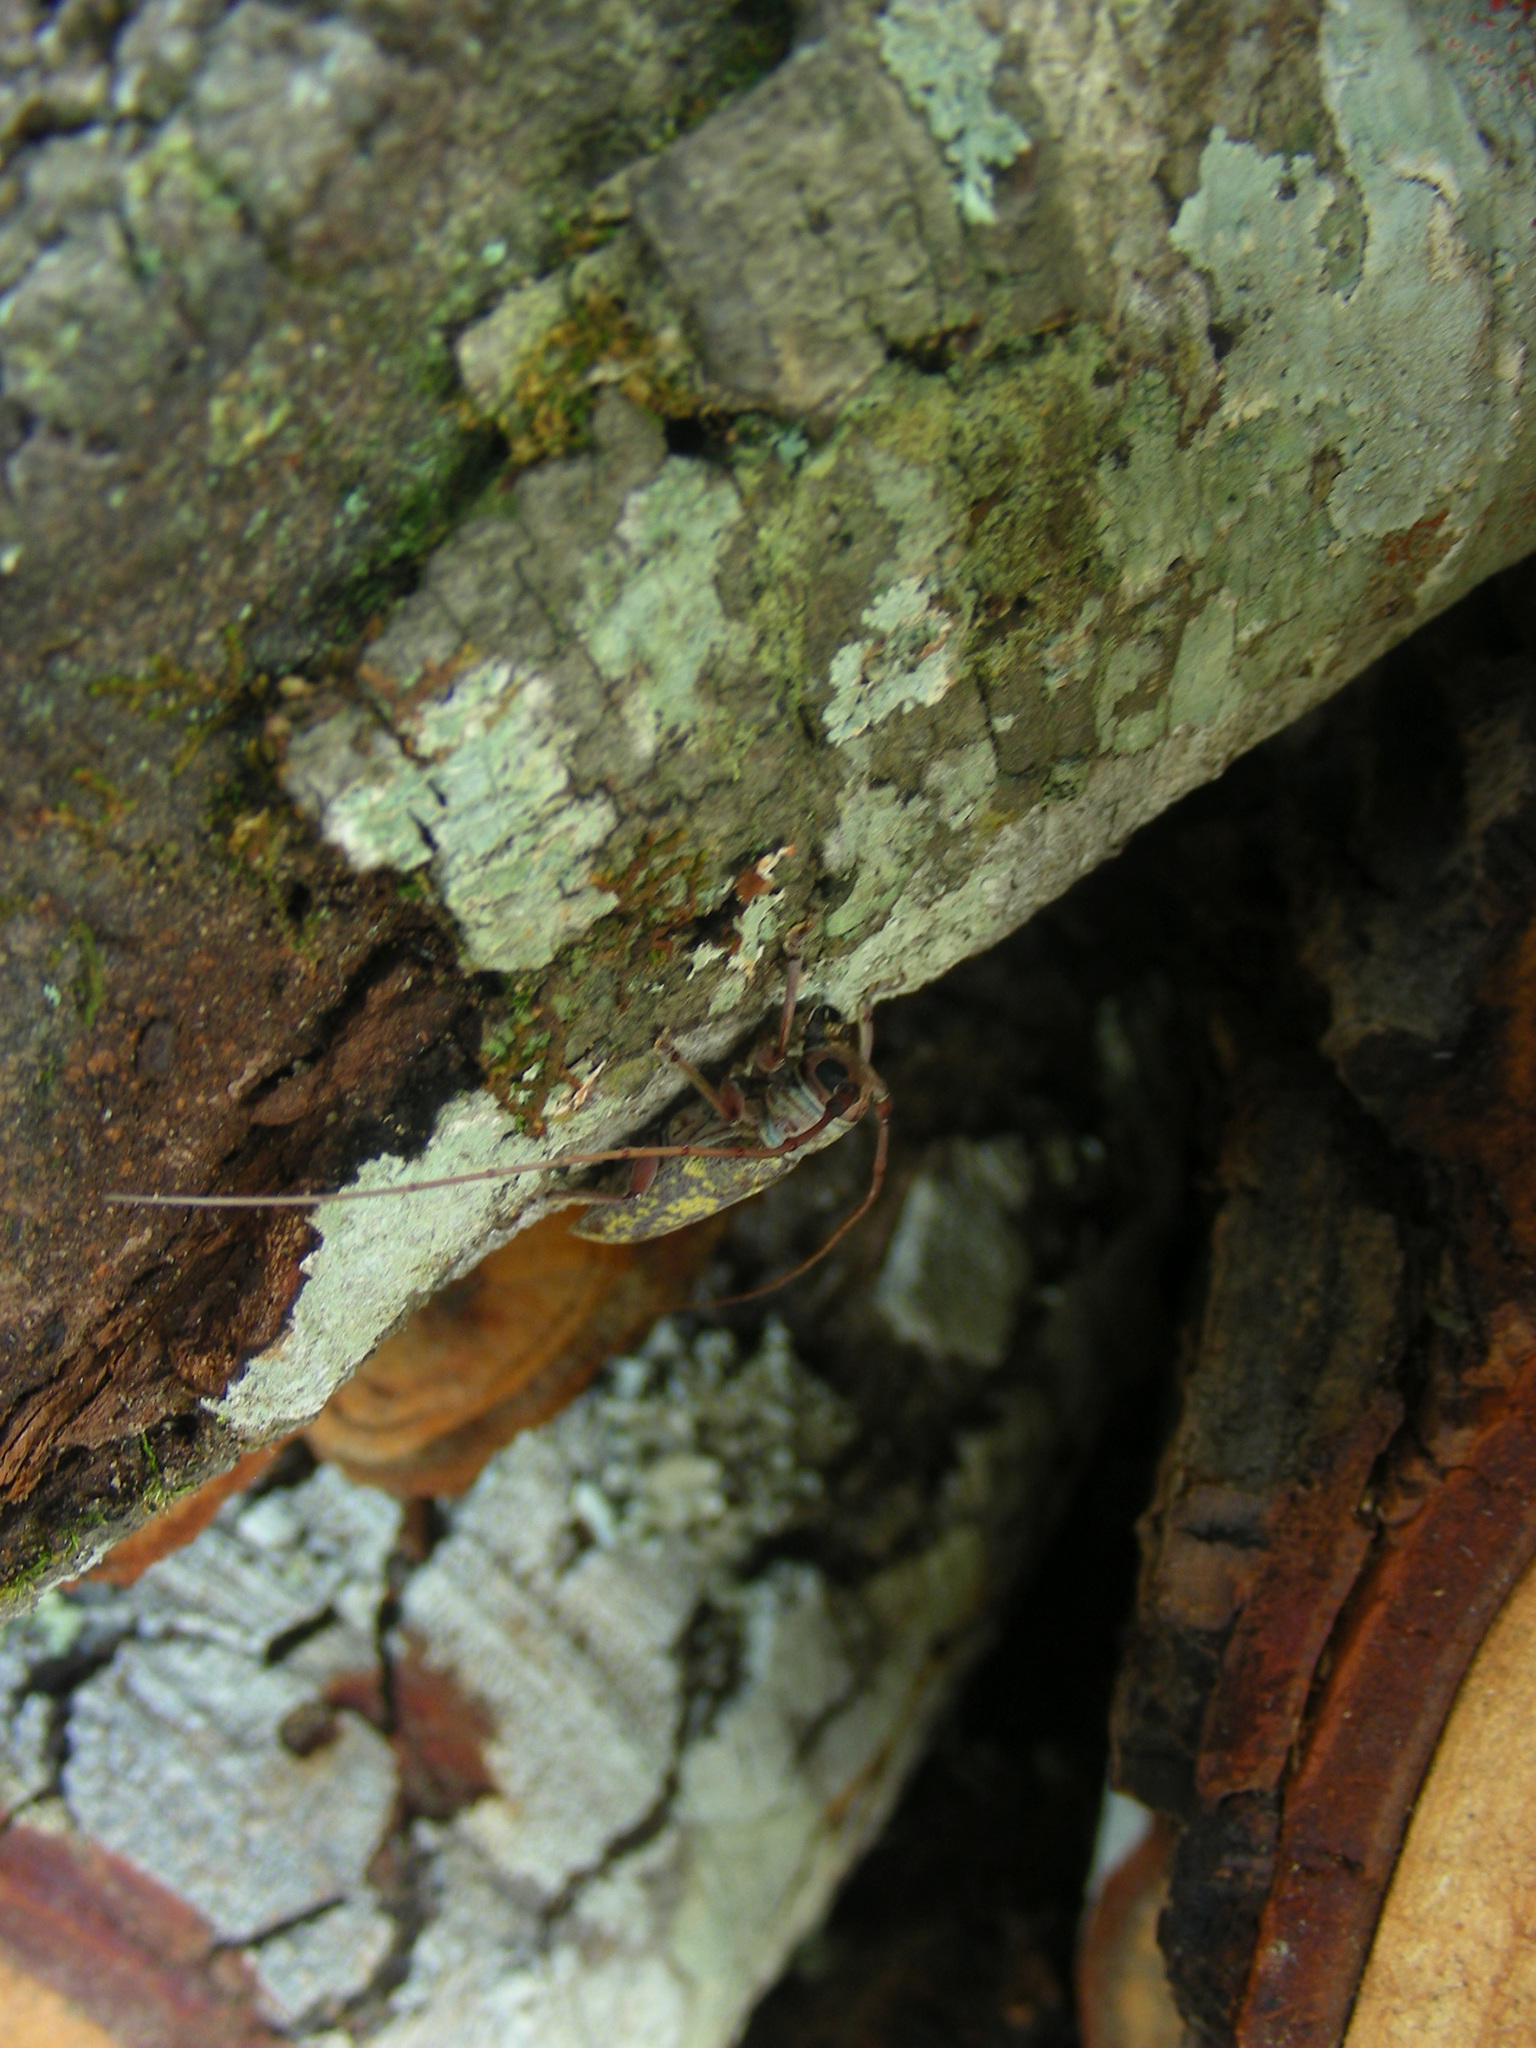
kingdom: Animalia
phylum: Arthropoda
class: Insecta
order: Coleoptera
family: Cerambycidae
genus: Prosopocera
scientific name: Prosopocera luteomarmorata
